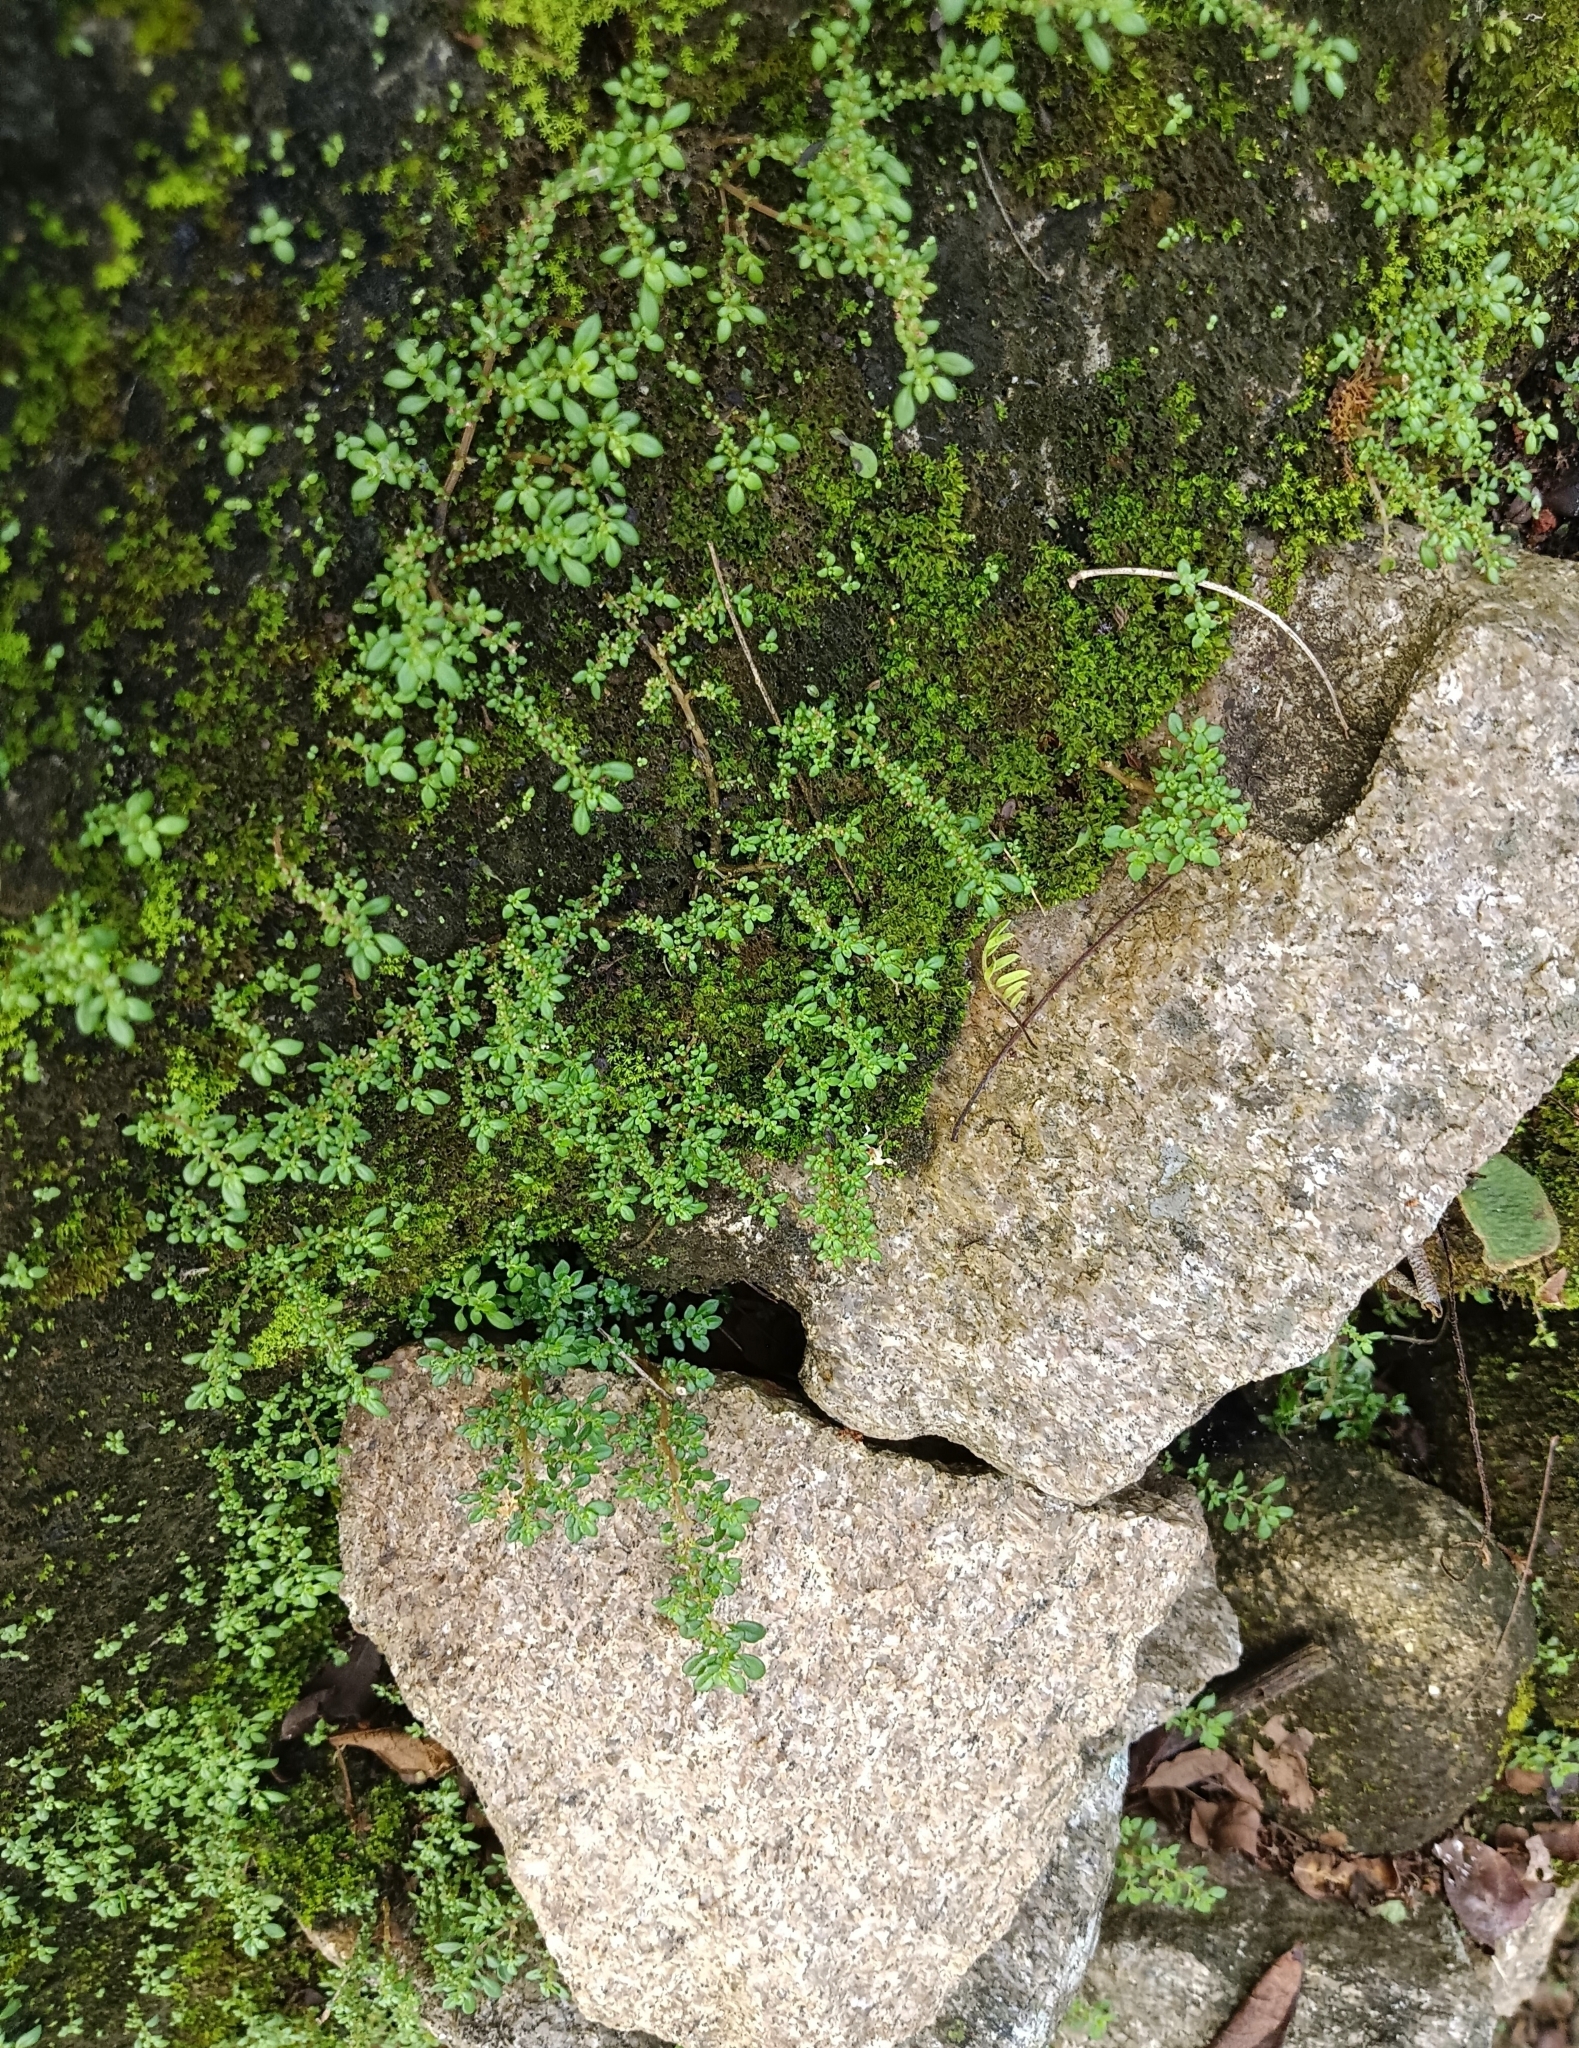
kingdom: Plantae
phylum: Tracheophyta
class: Magnoliopsida
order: Rosales
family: Urticaceae
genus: Pilea
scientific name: Pilea microphylla
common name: Artillery-plant
